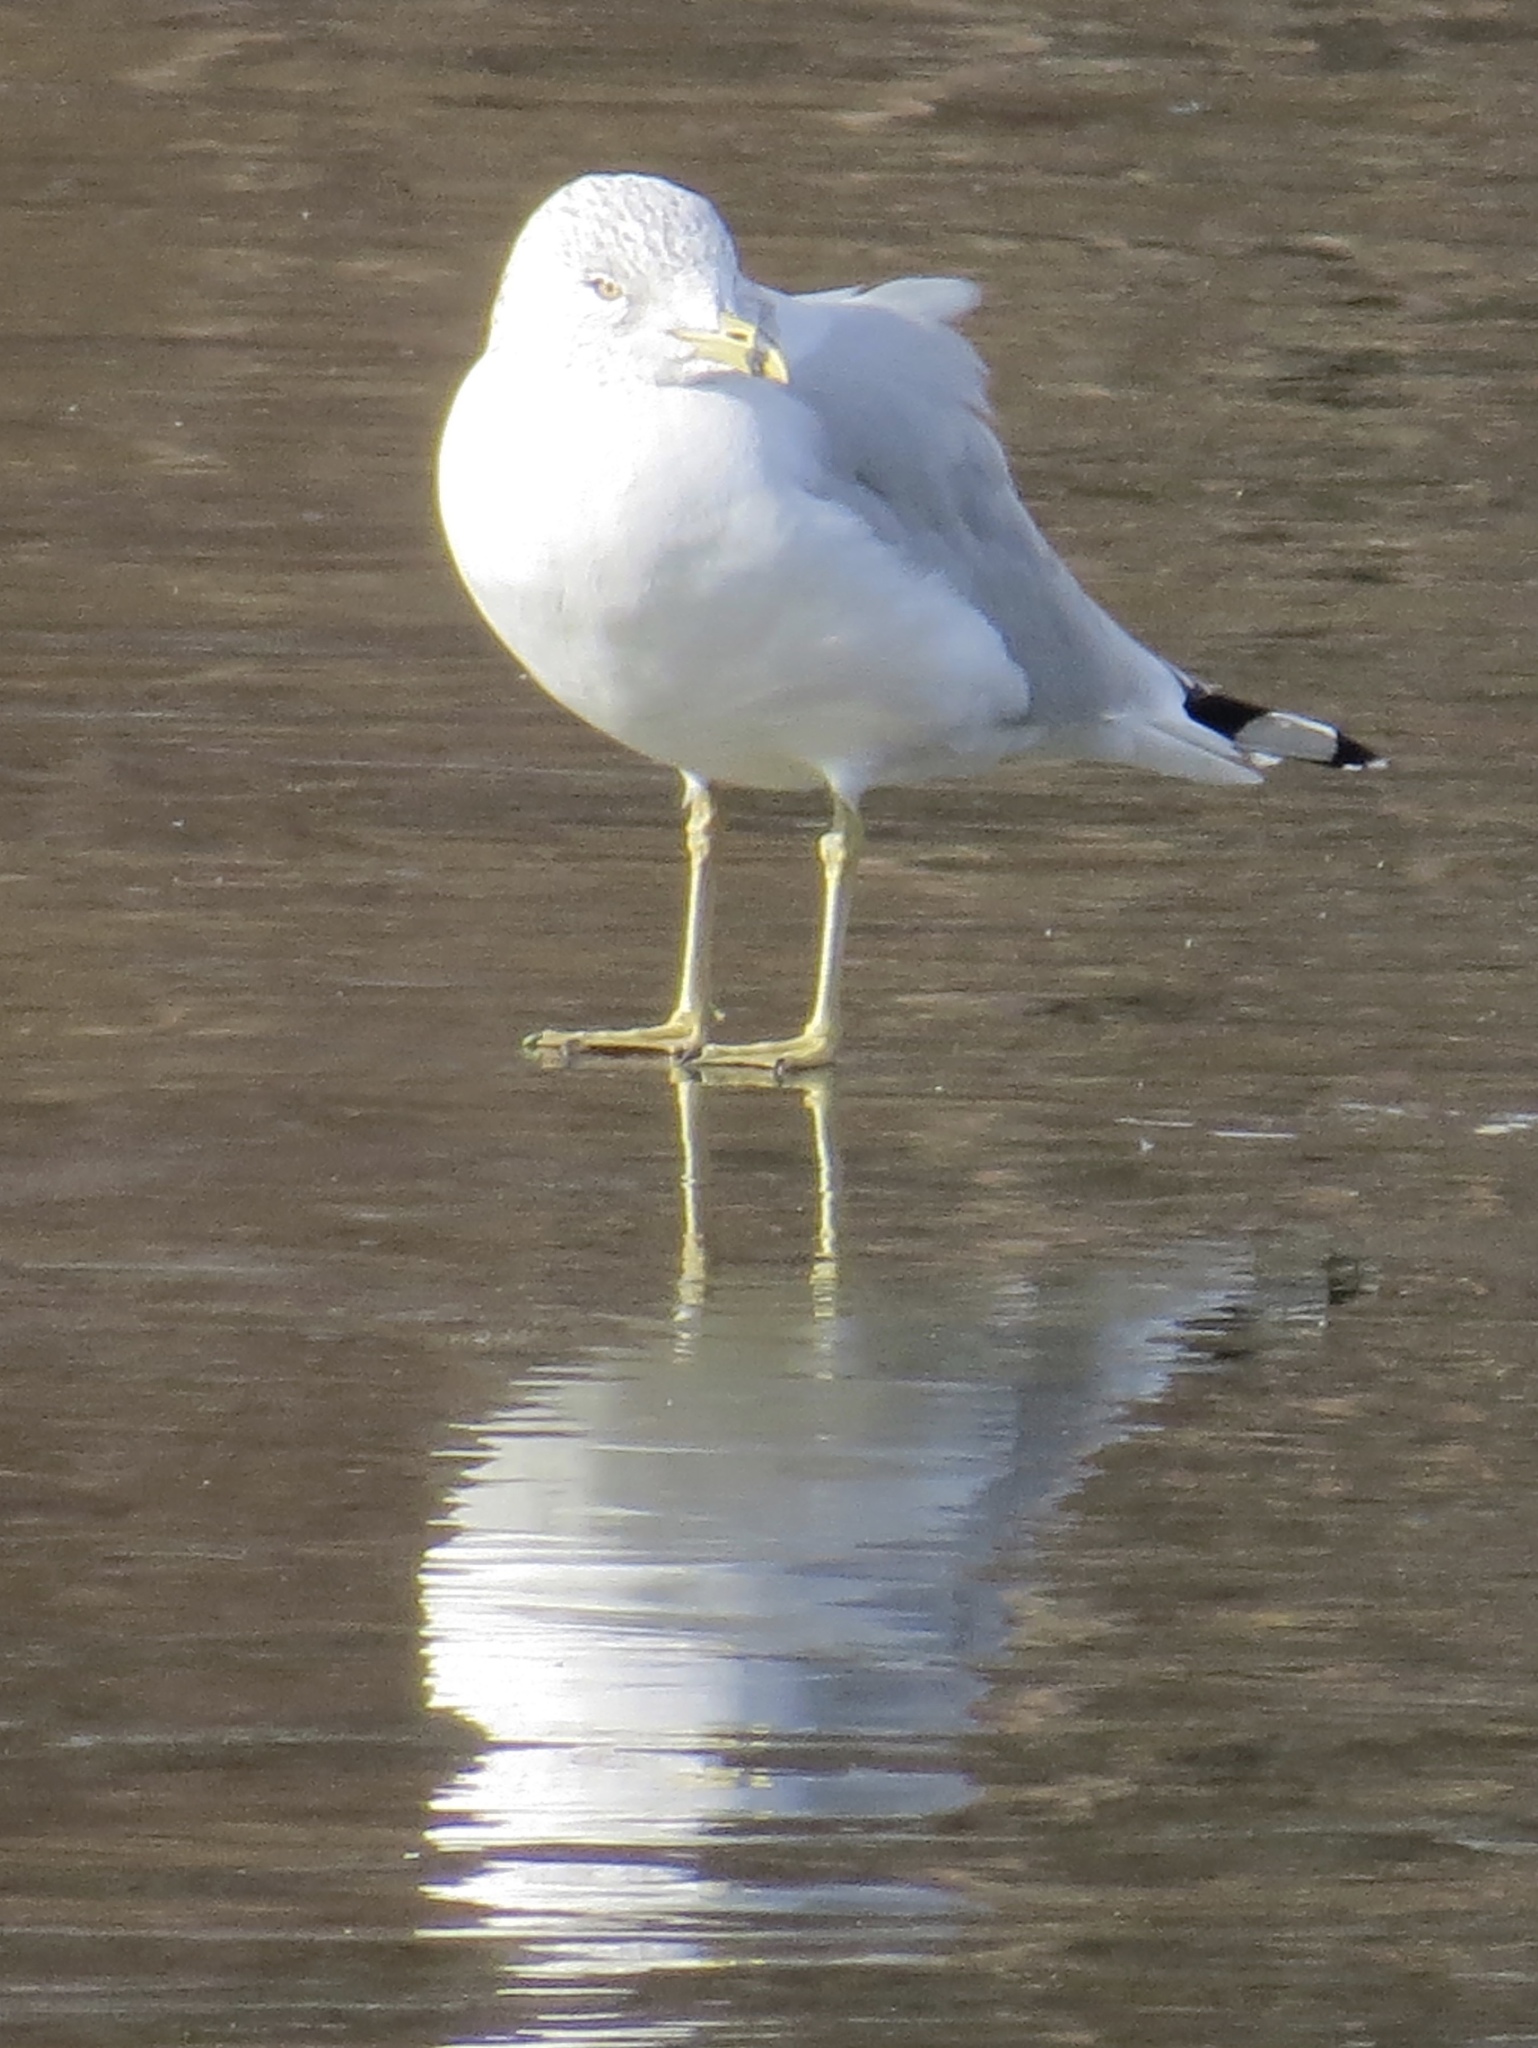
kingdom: Animalia
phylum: Chordata
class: Aves
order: Charadriiformes
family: Laridae
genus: Larus
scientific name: Larus delawarensis
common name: Ring-billed gull
